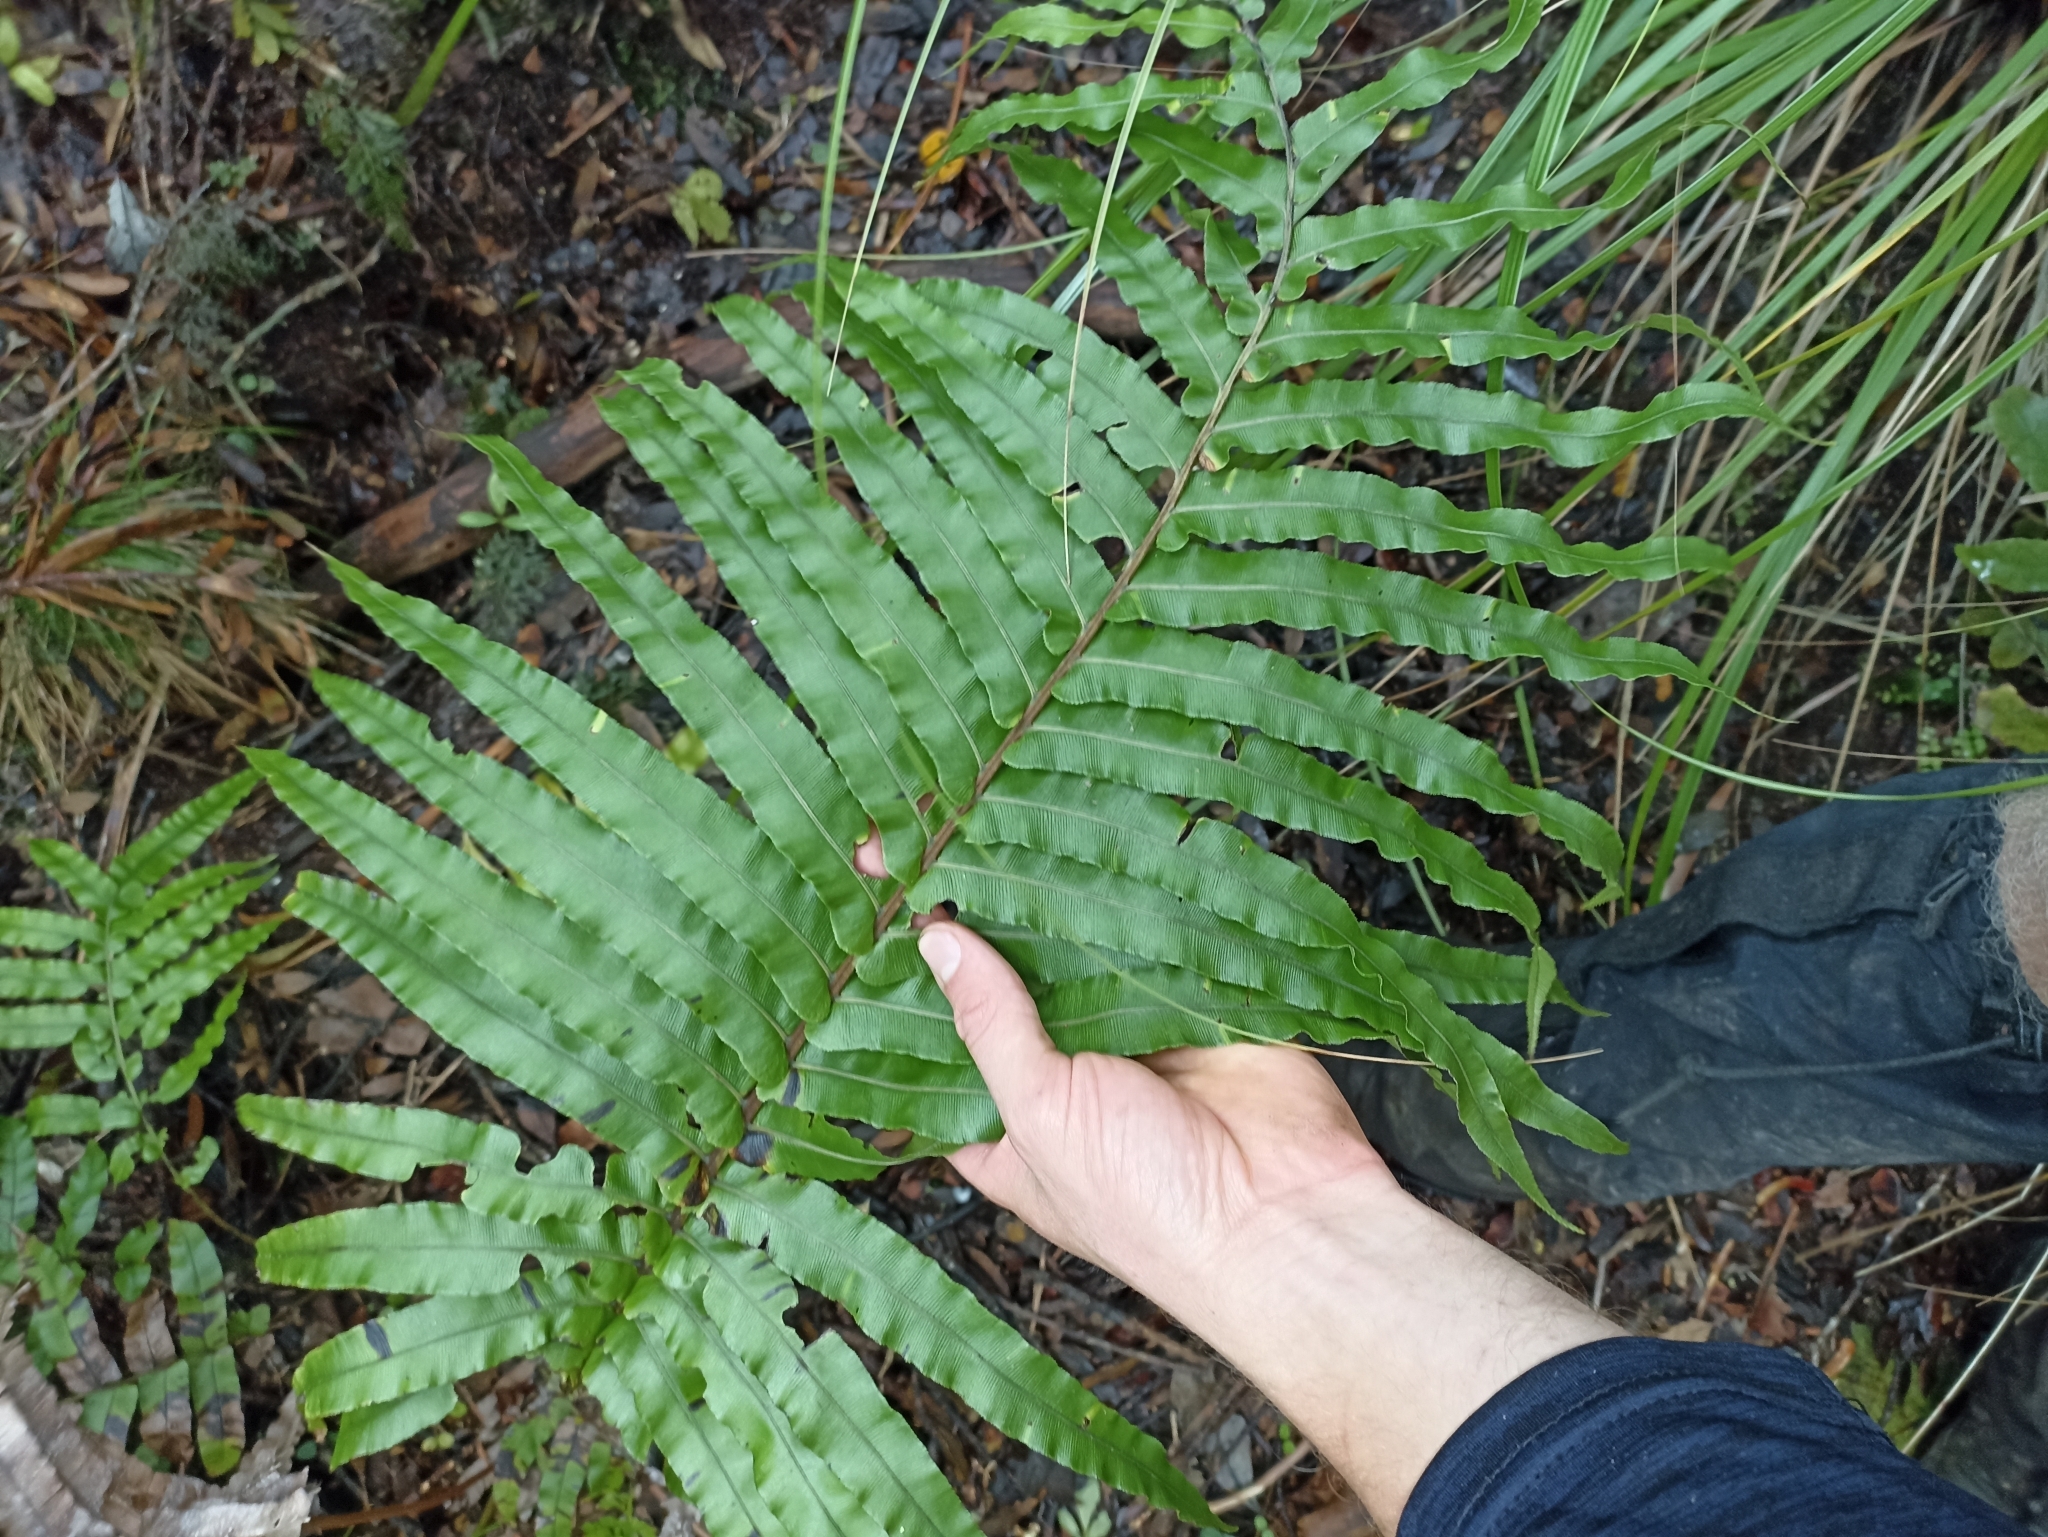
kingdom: Plantae
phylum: Tracheophyta
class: Polypodiopsida
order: Polypodiales
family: Blechnaceae
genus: Parablechnum
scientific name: Parablechnum novae-zelandiae
